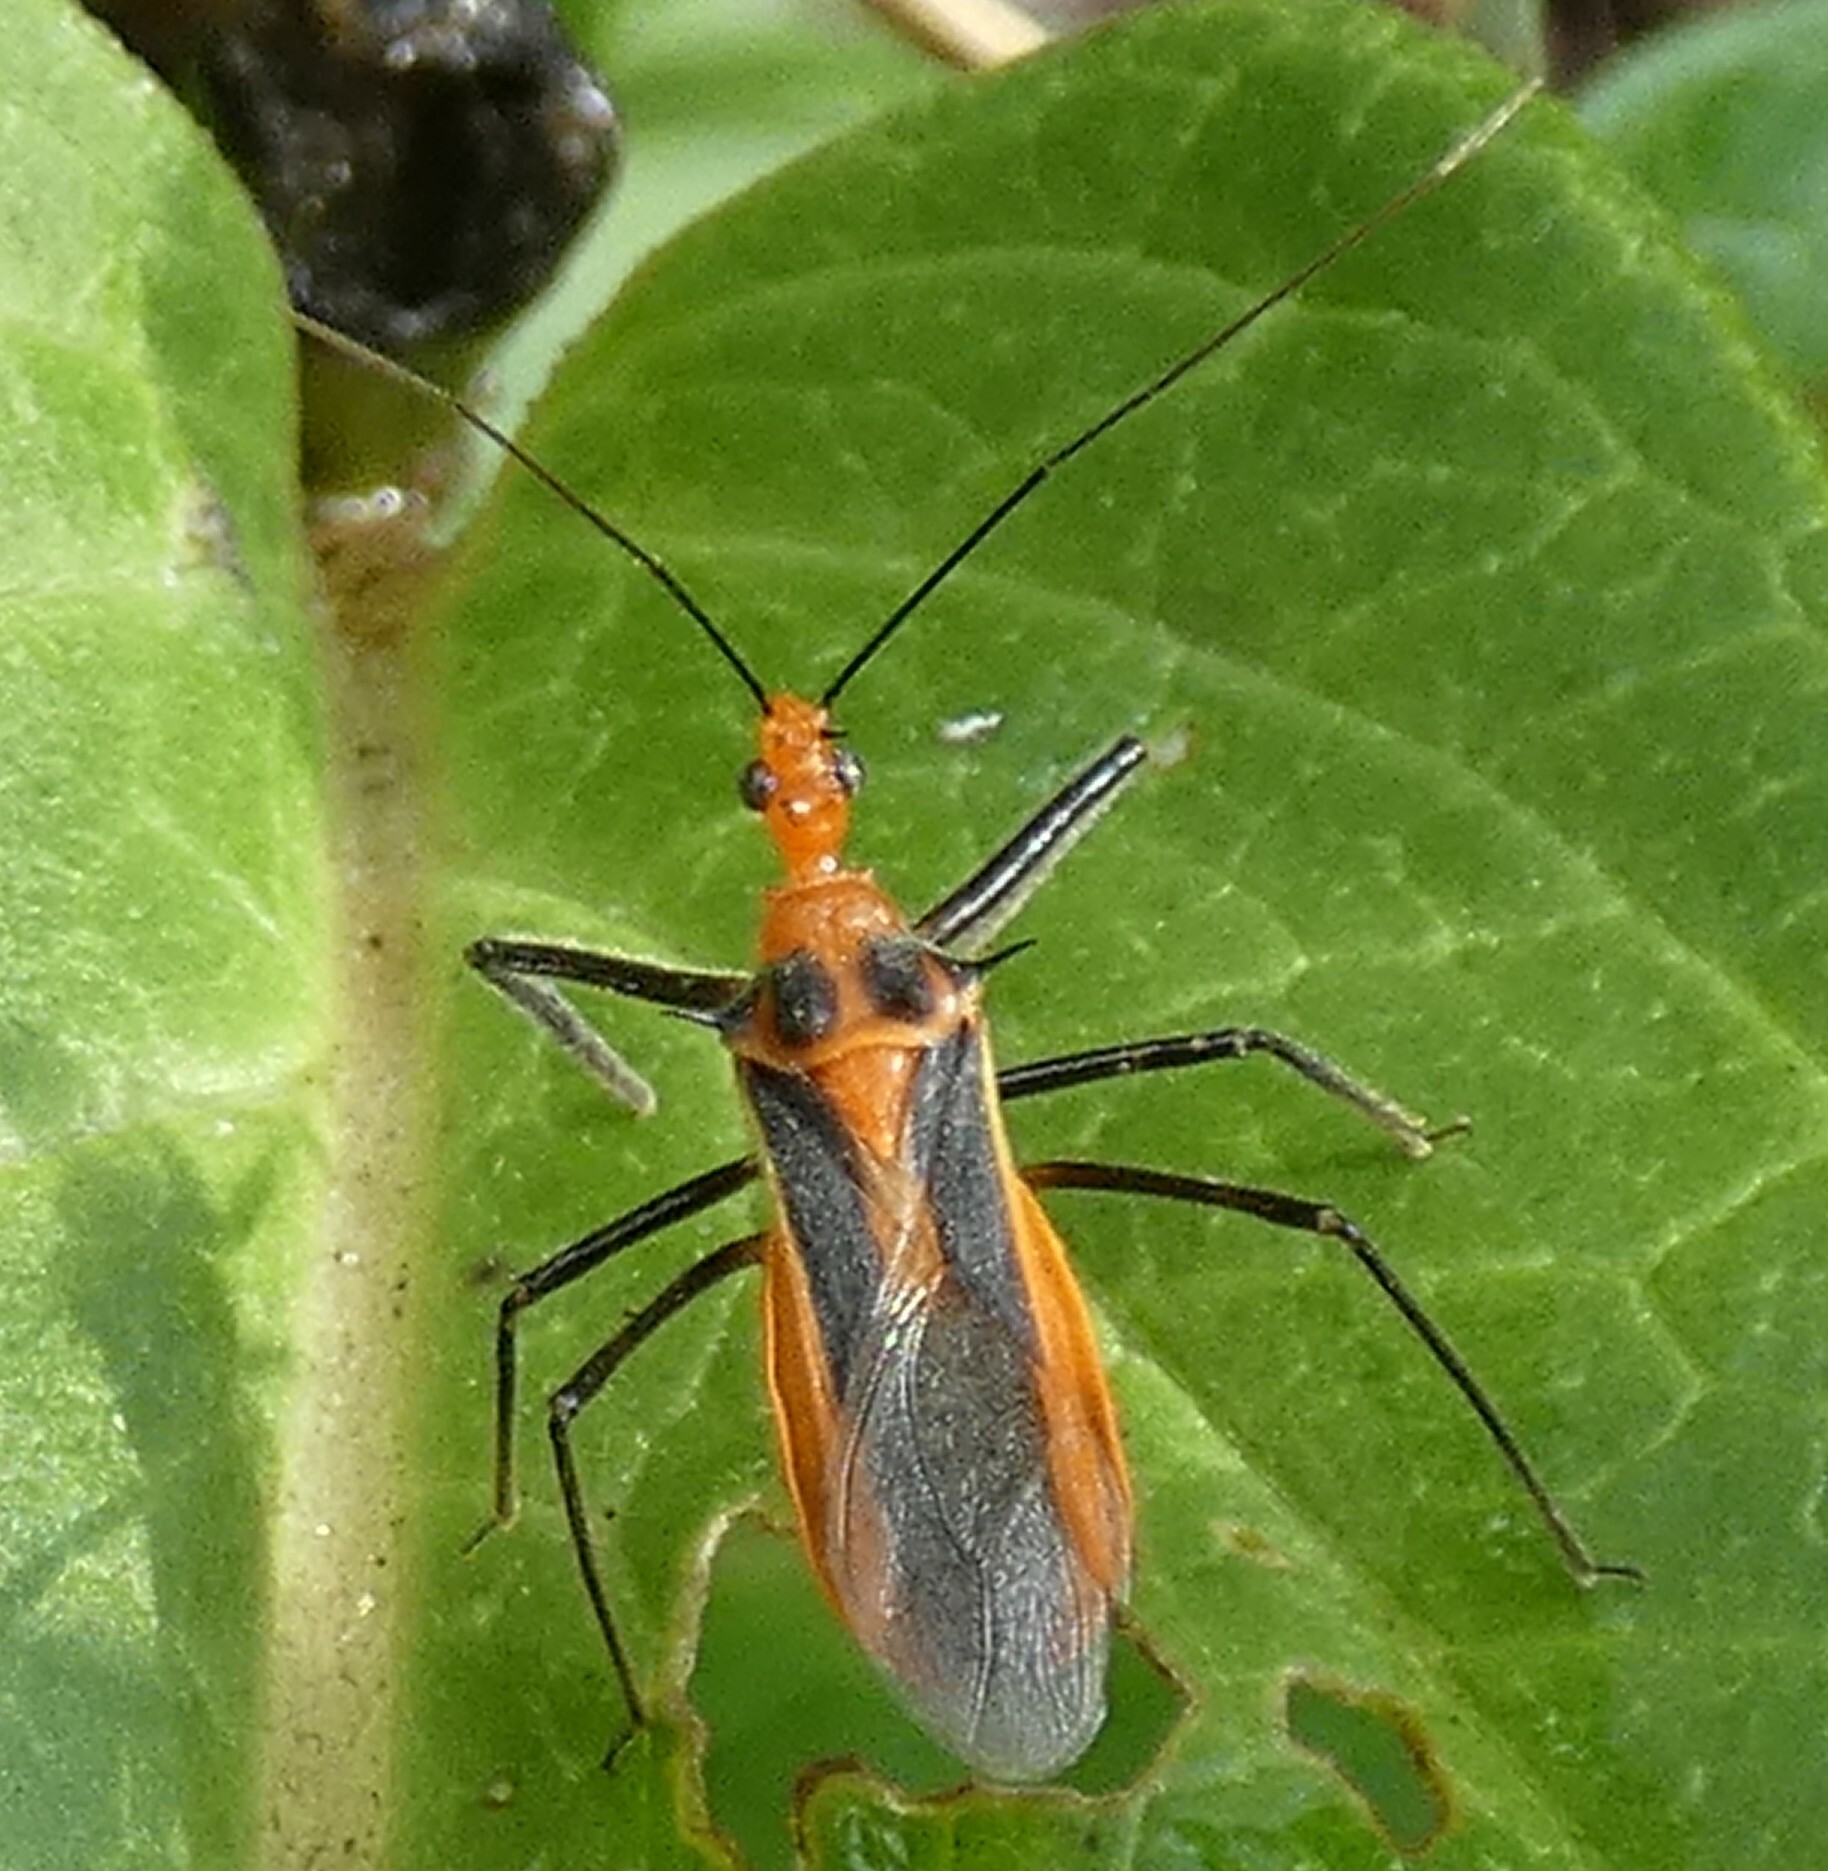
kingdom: Animalia
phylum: Arthropoda
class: Insecta
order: Hemiptera
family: Reduviidae
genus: Repipta
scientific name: Repipta taurus
